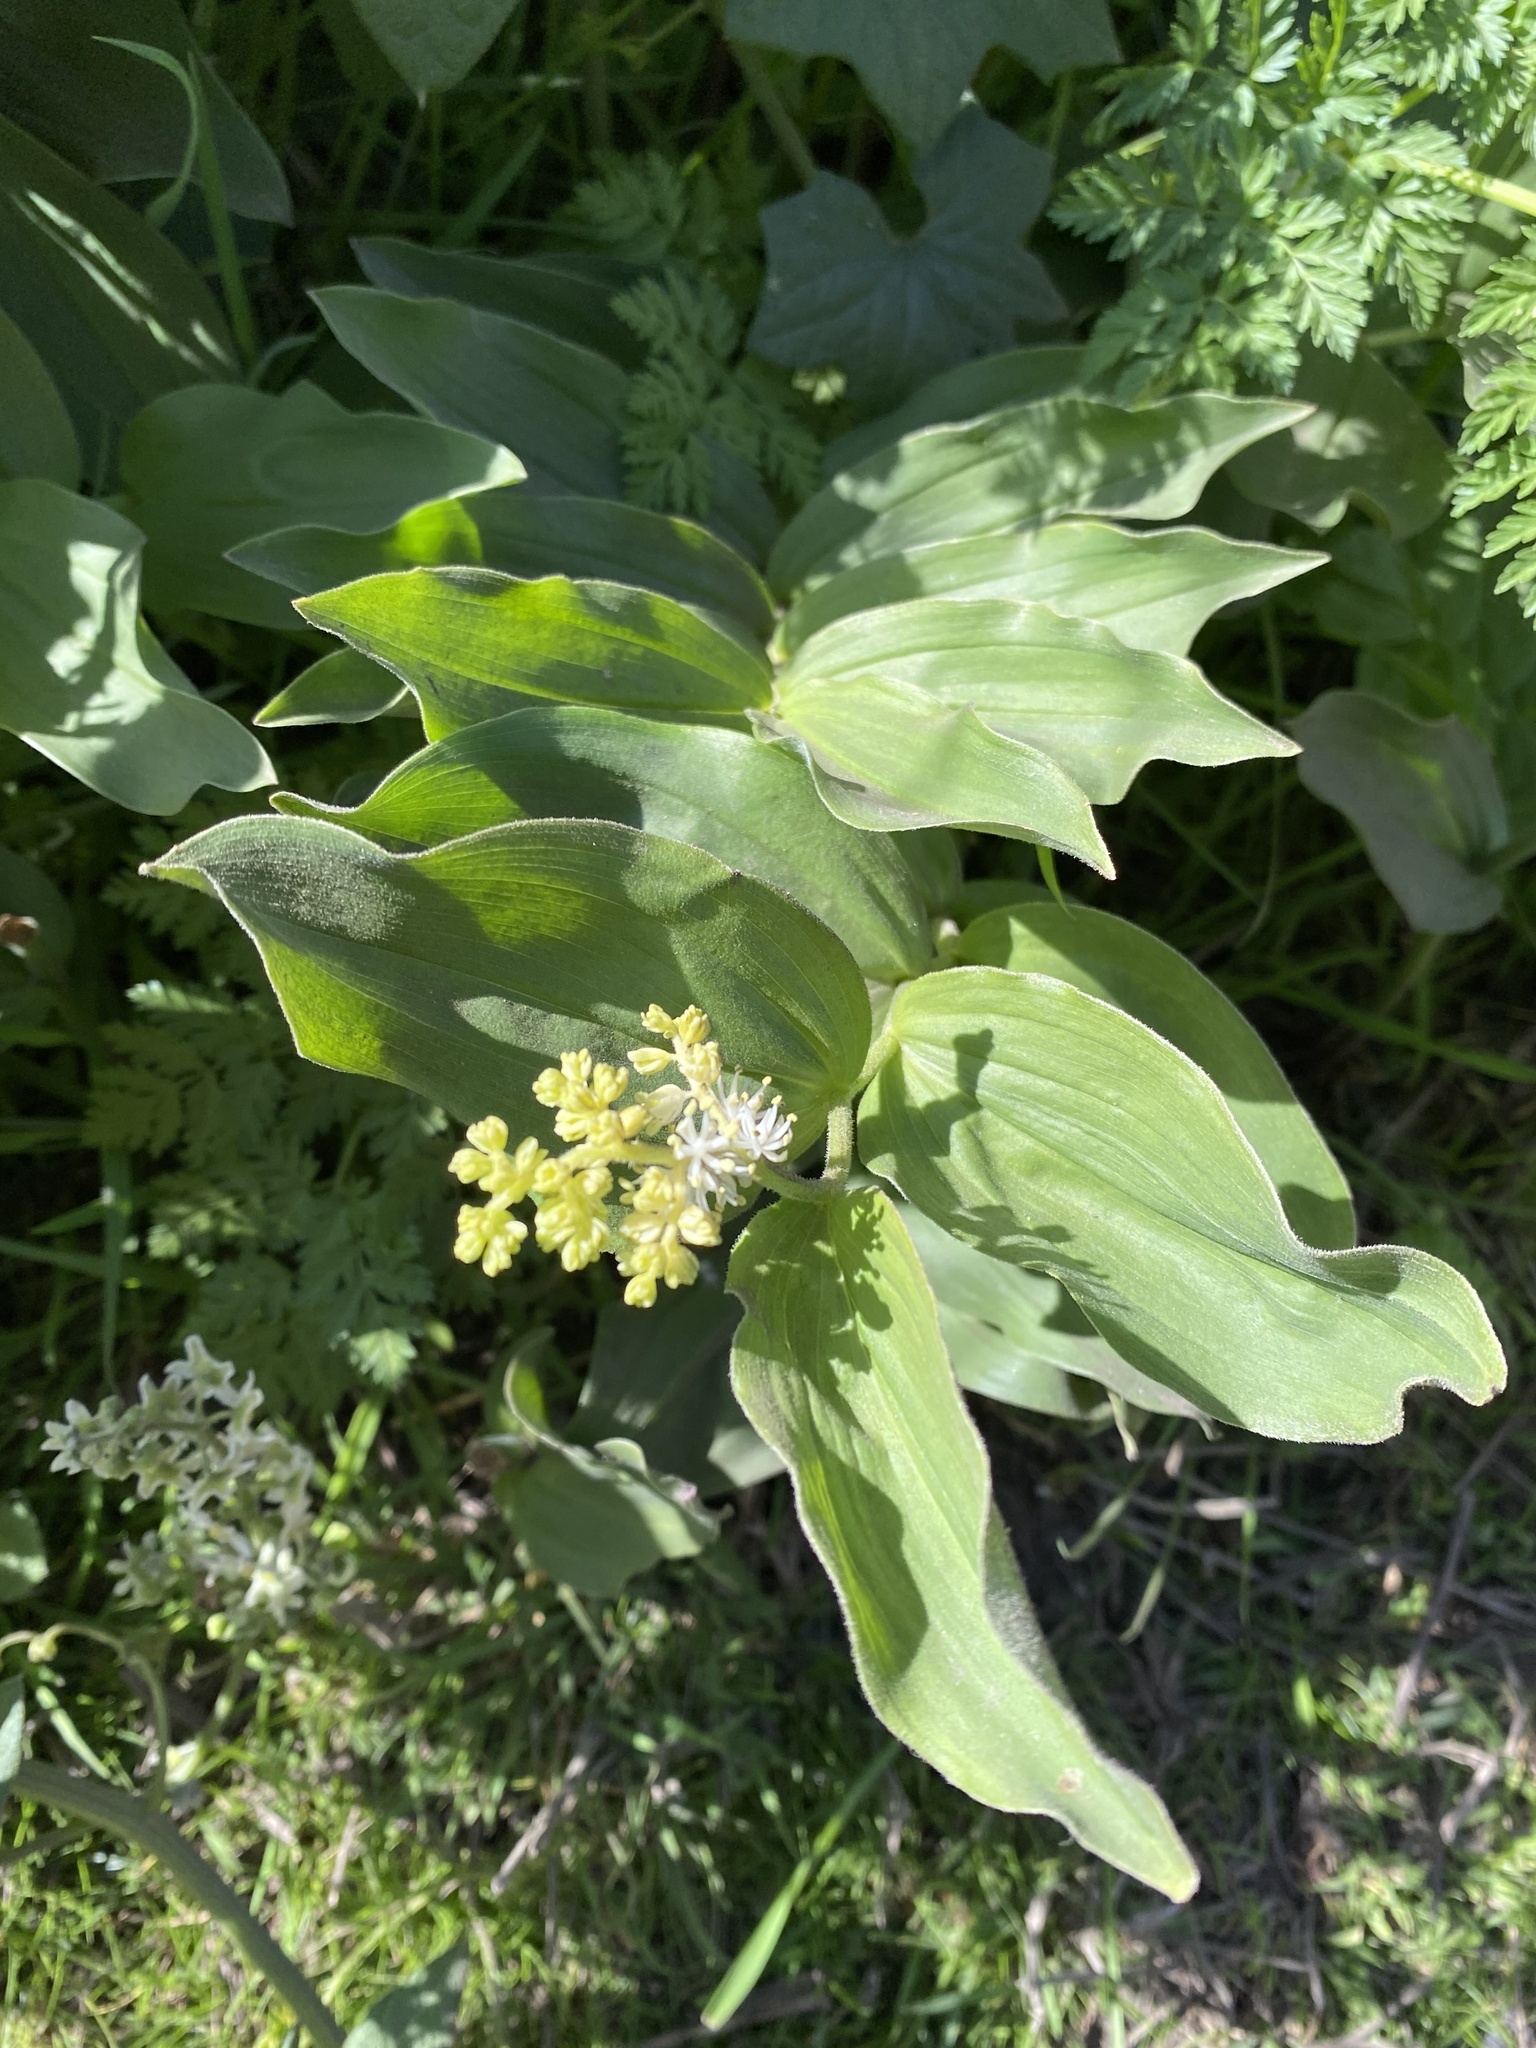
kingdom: Plantae
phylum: Tracheophyta
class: Liliopsida
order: Asparagales
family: Asparagaceae
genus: Maianthemum
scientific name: Maianthemum racemosum
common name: False spikenard
